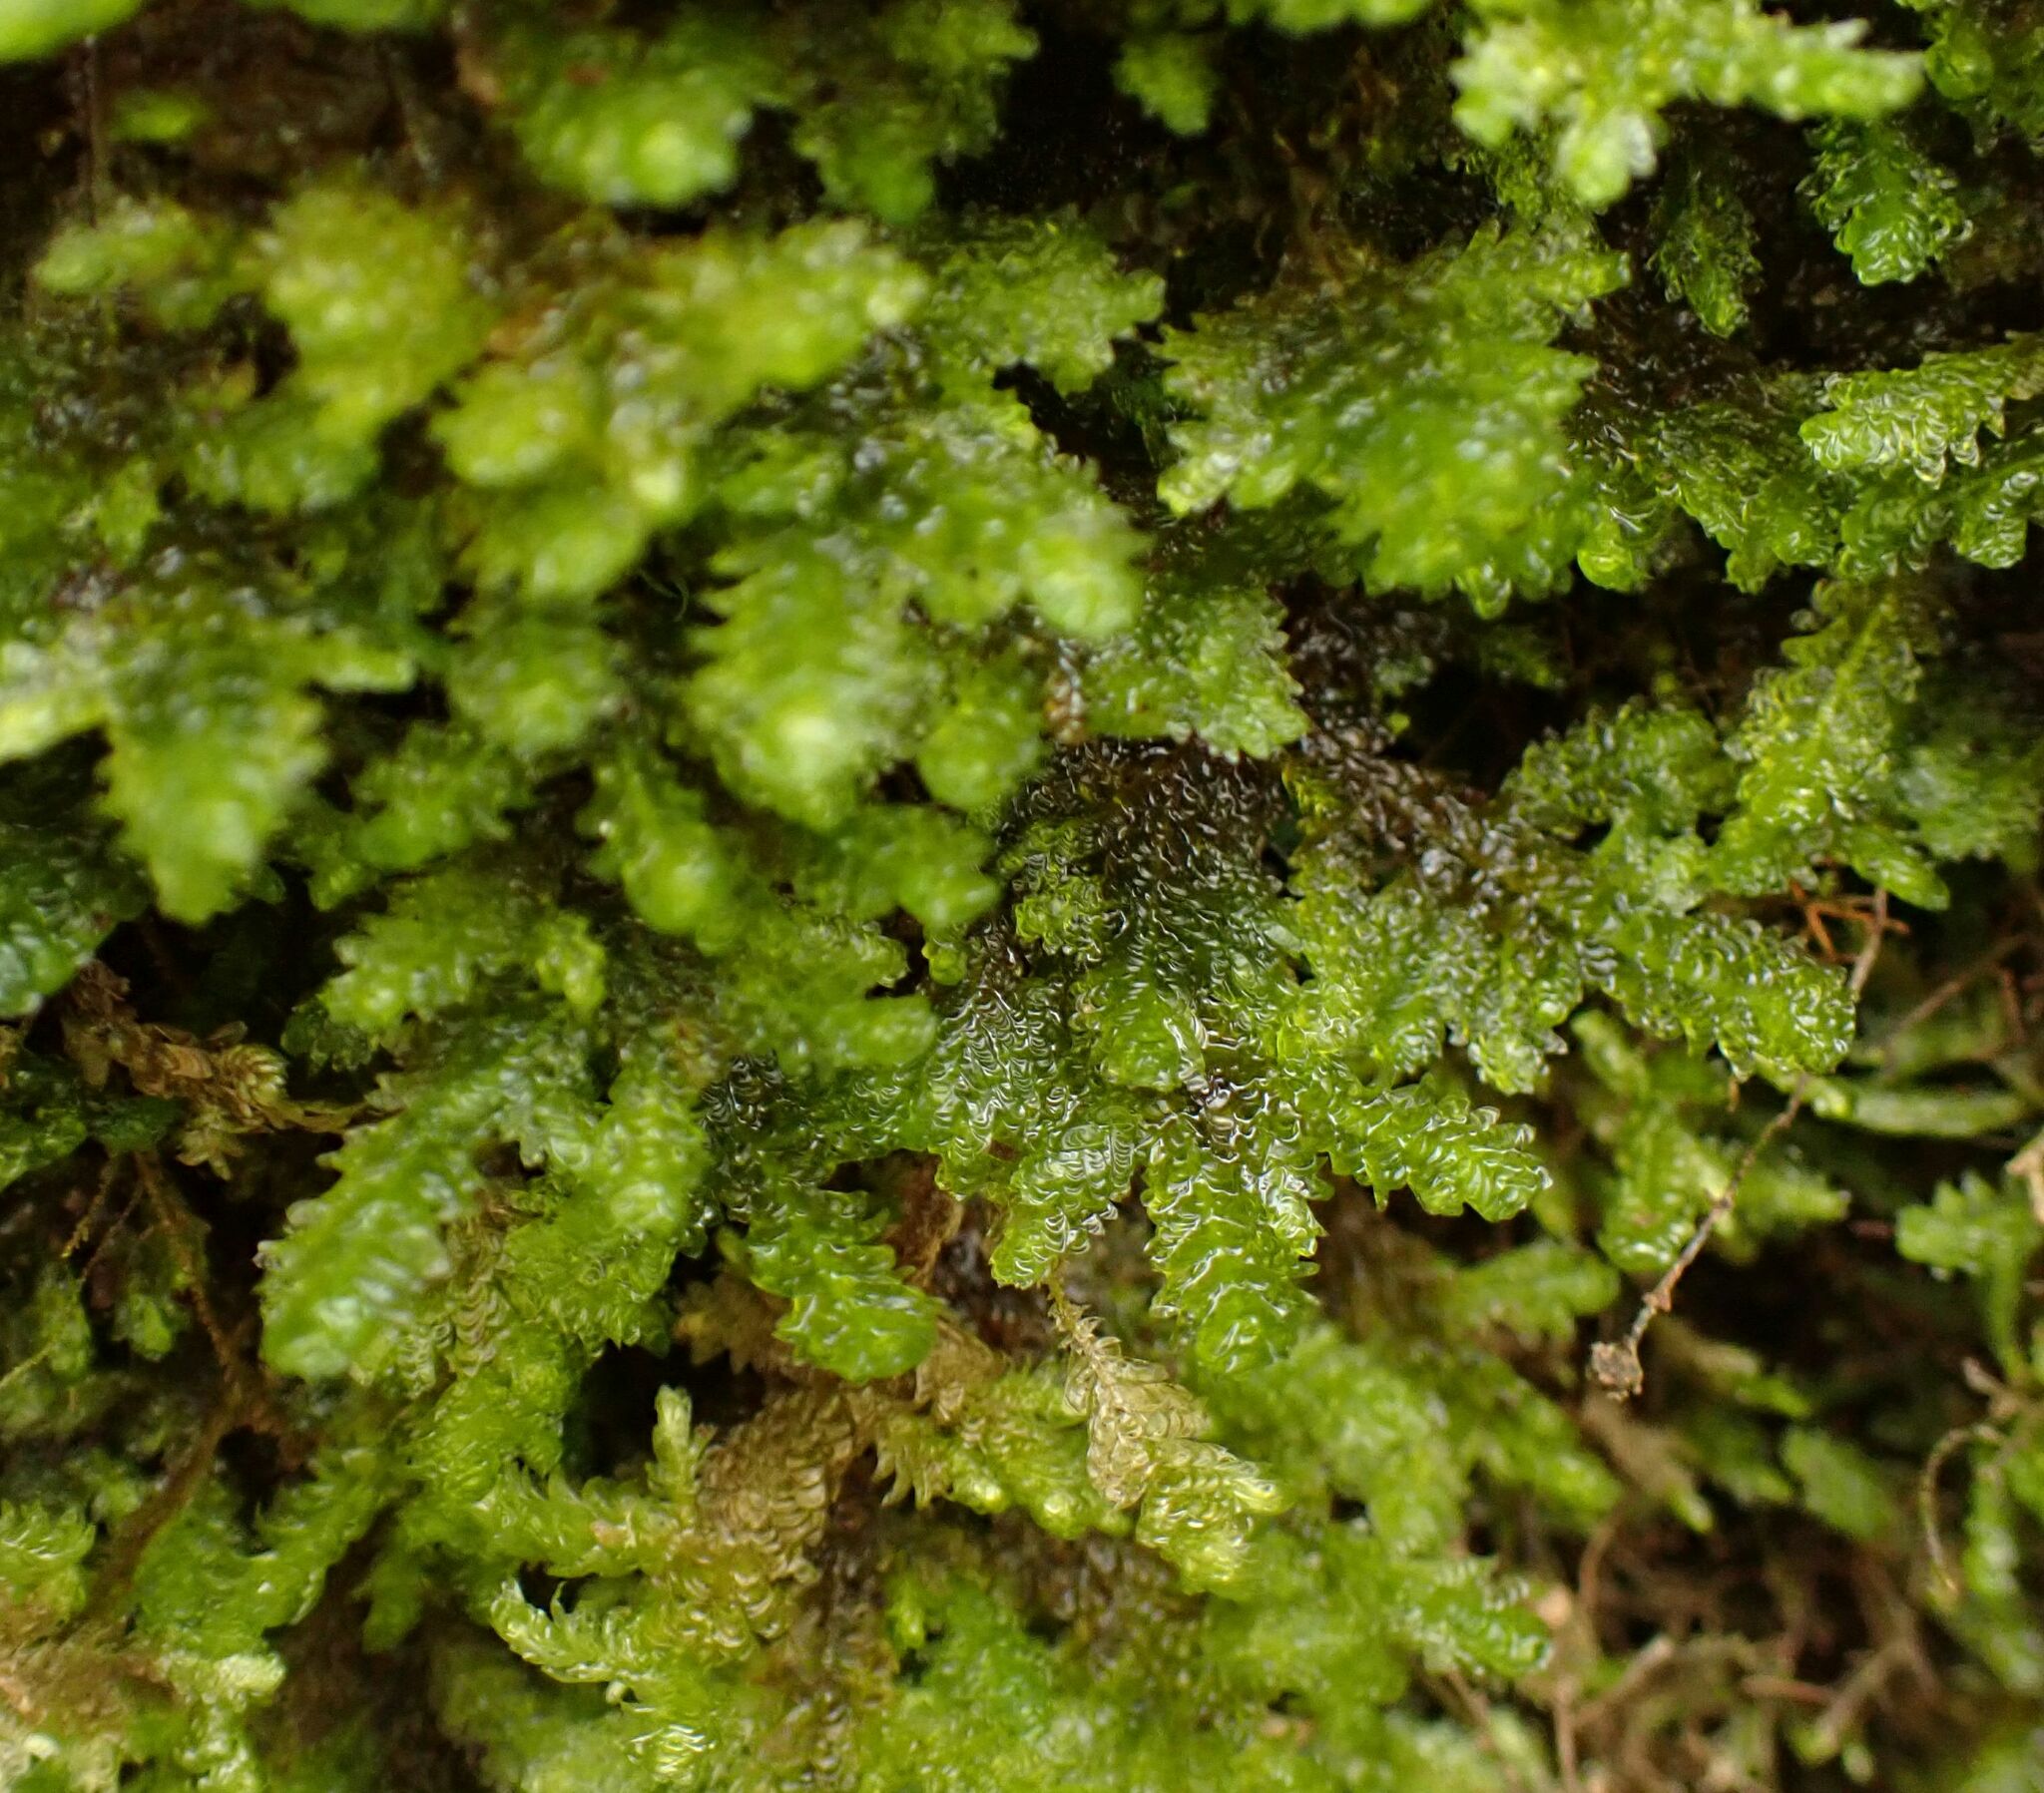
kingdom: Plantae
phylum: Bryophyta
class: Bryopsida
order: Hypnales
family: Neckeraceae
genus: Exsertotheca
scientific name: Exsertotheca crispa
